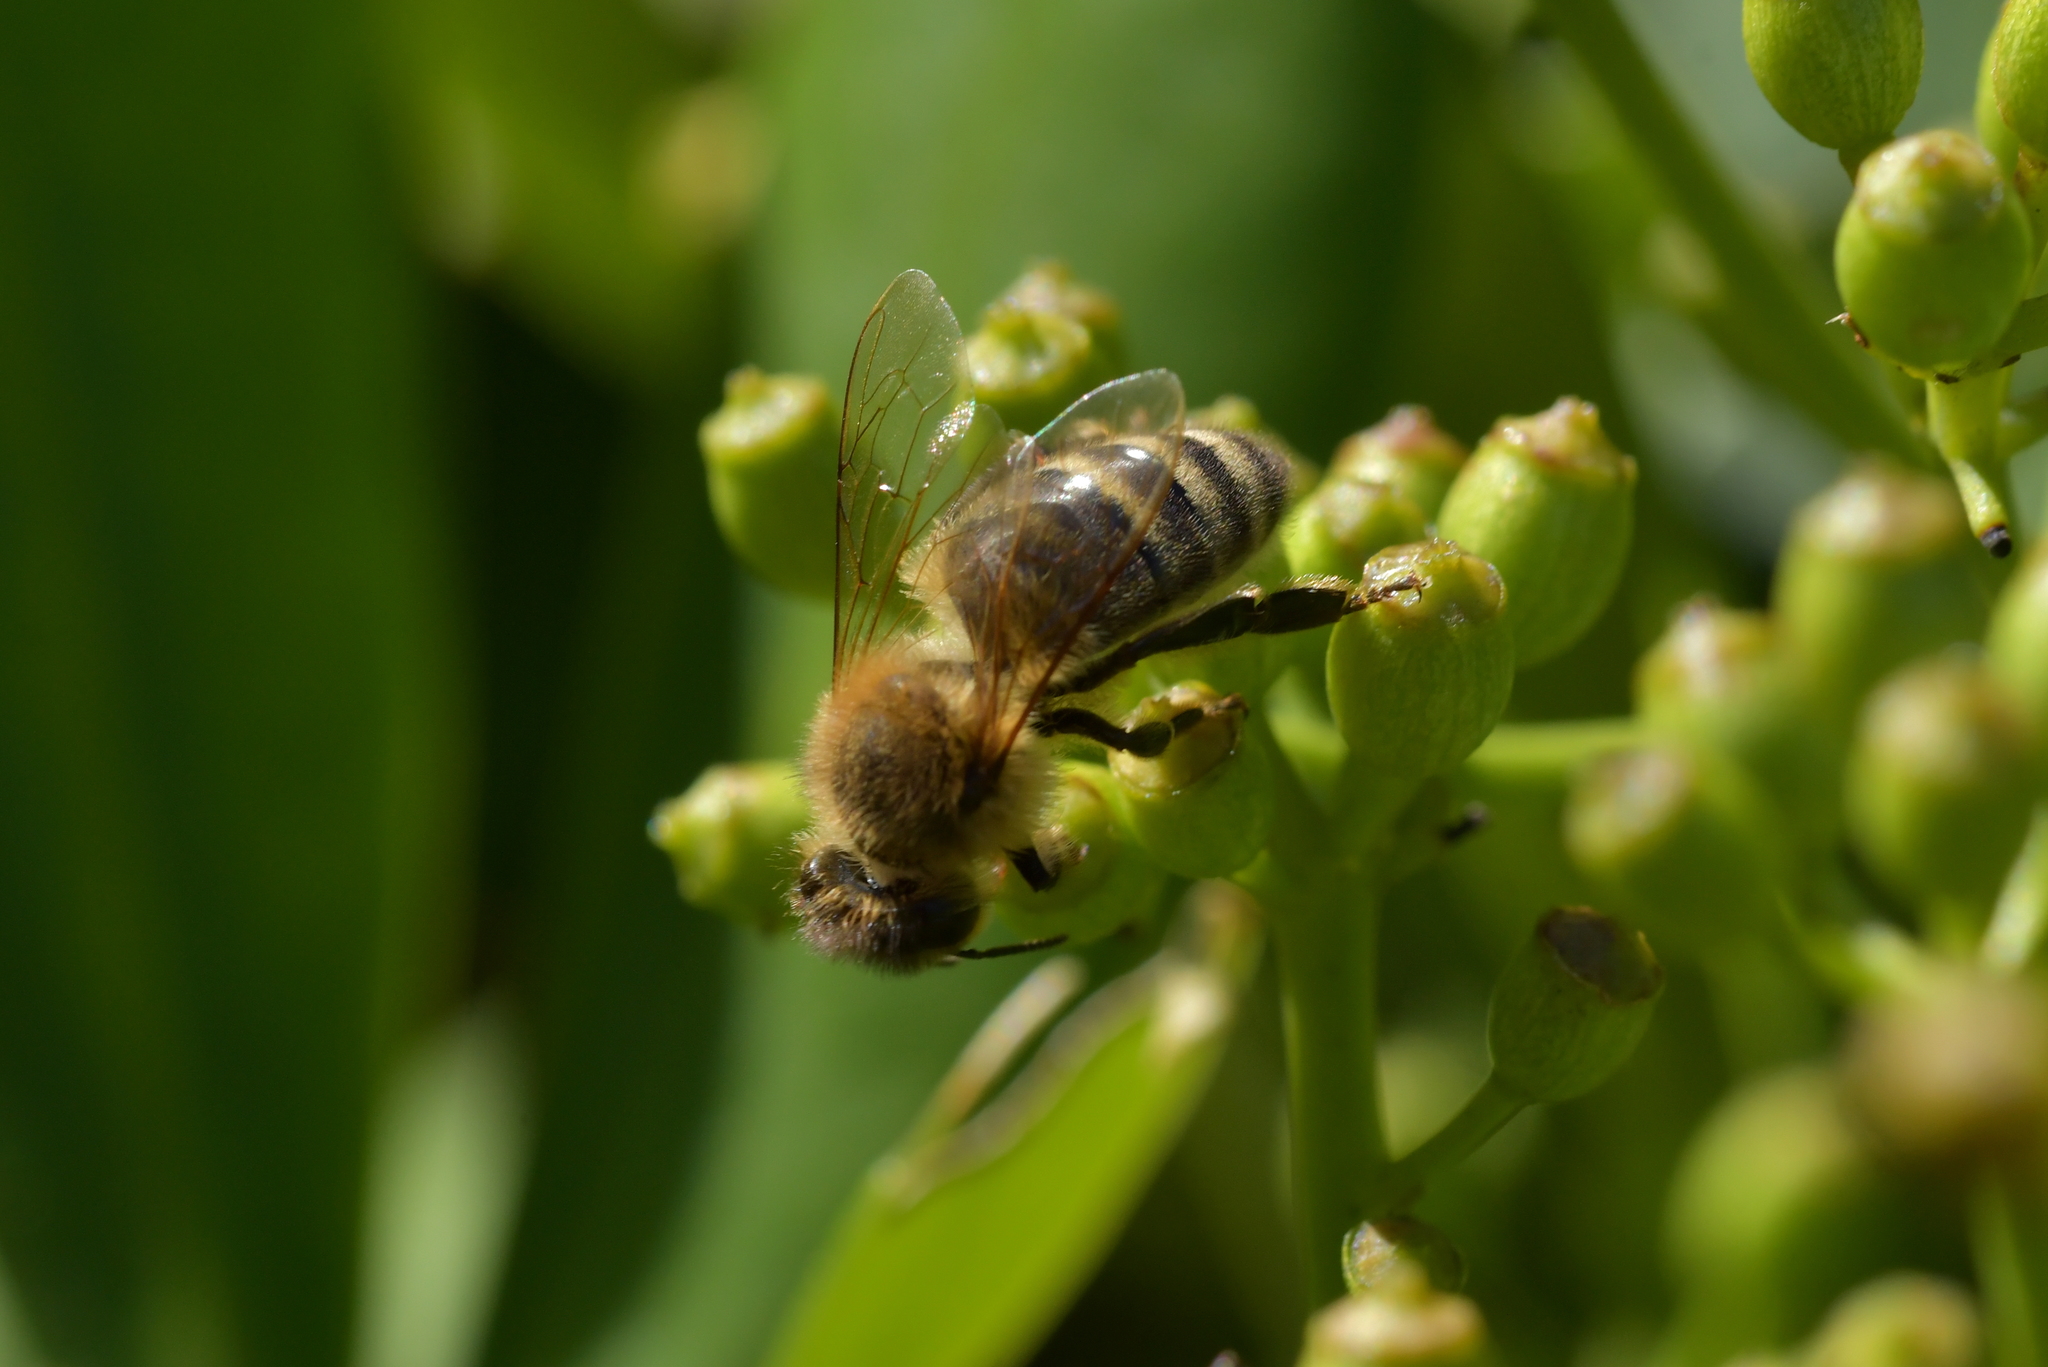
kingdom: Animalia
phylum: Arthropoda
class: Insecta
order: Hymenoptera
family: Apidae
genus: Apis
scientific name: Apis mellifera
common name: Honey bee
